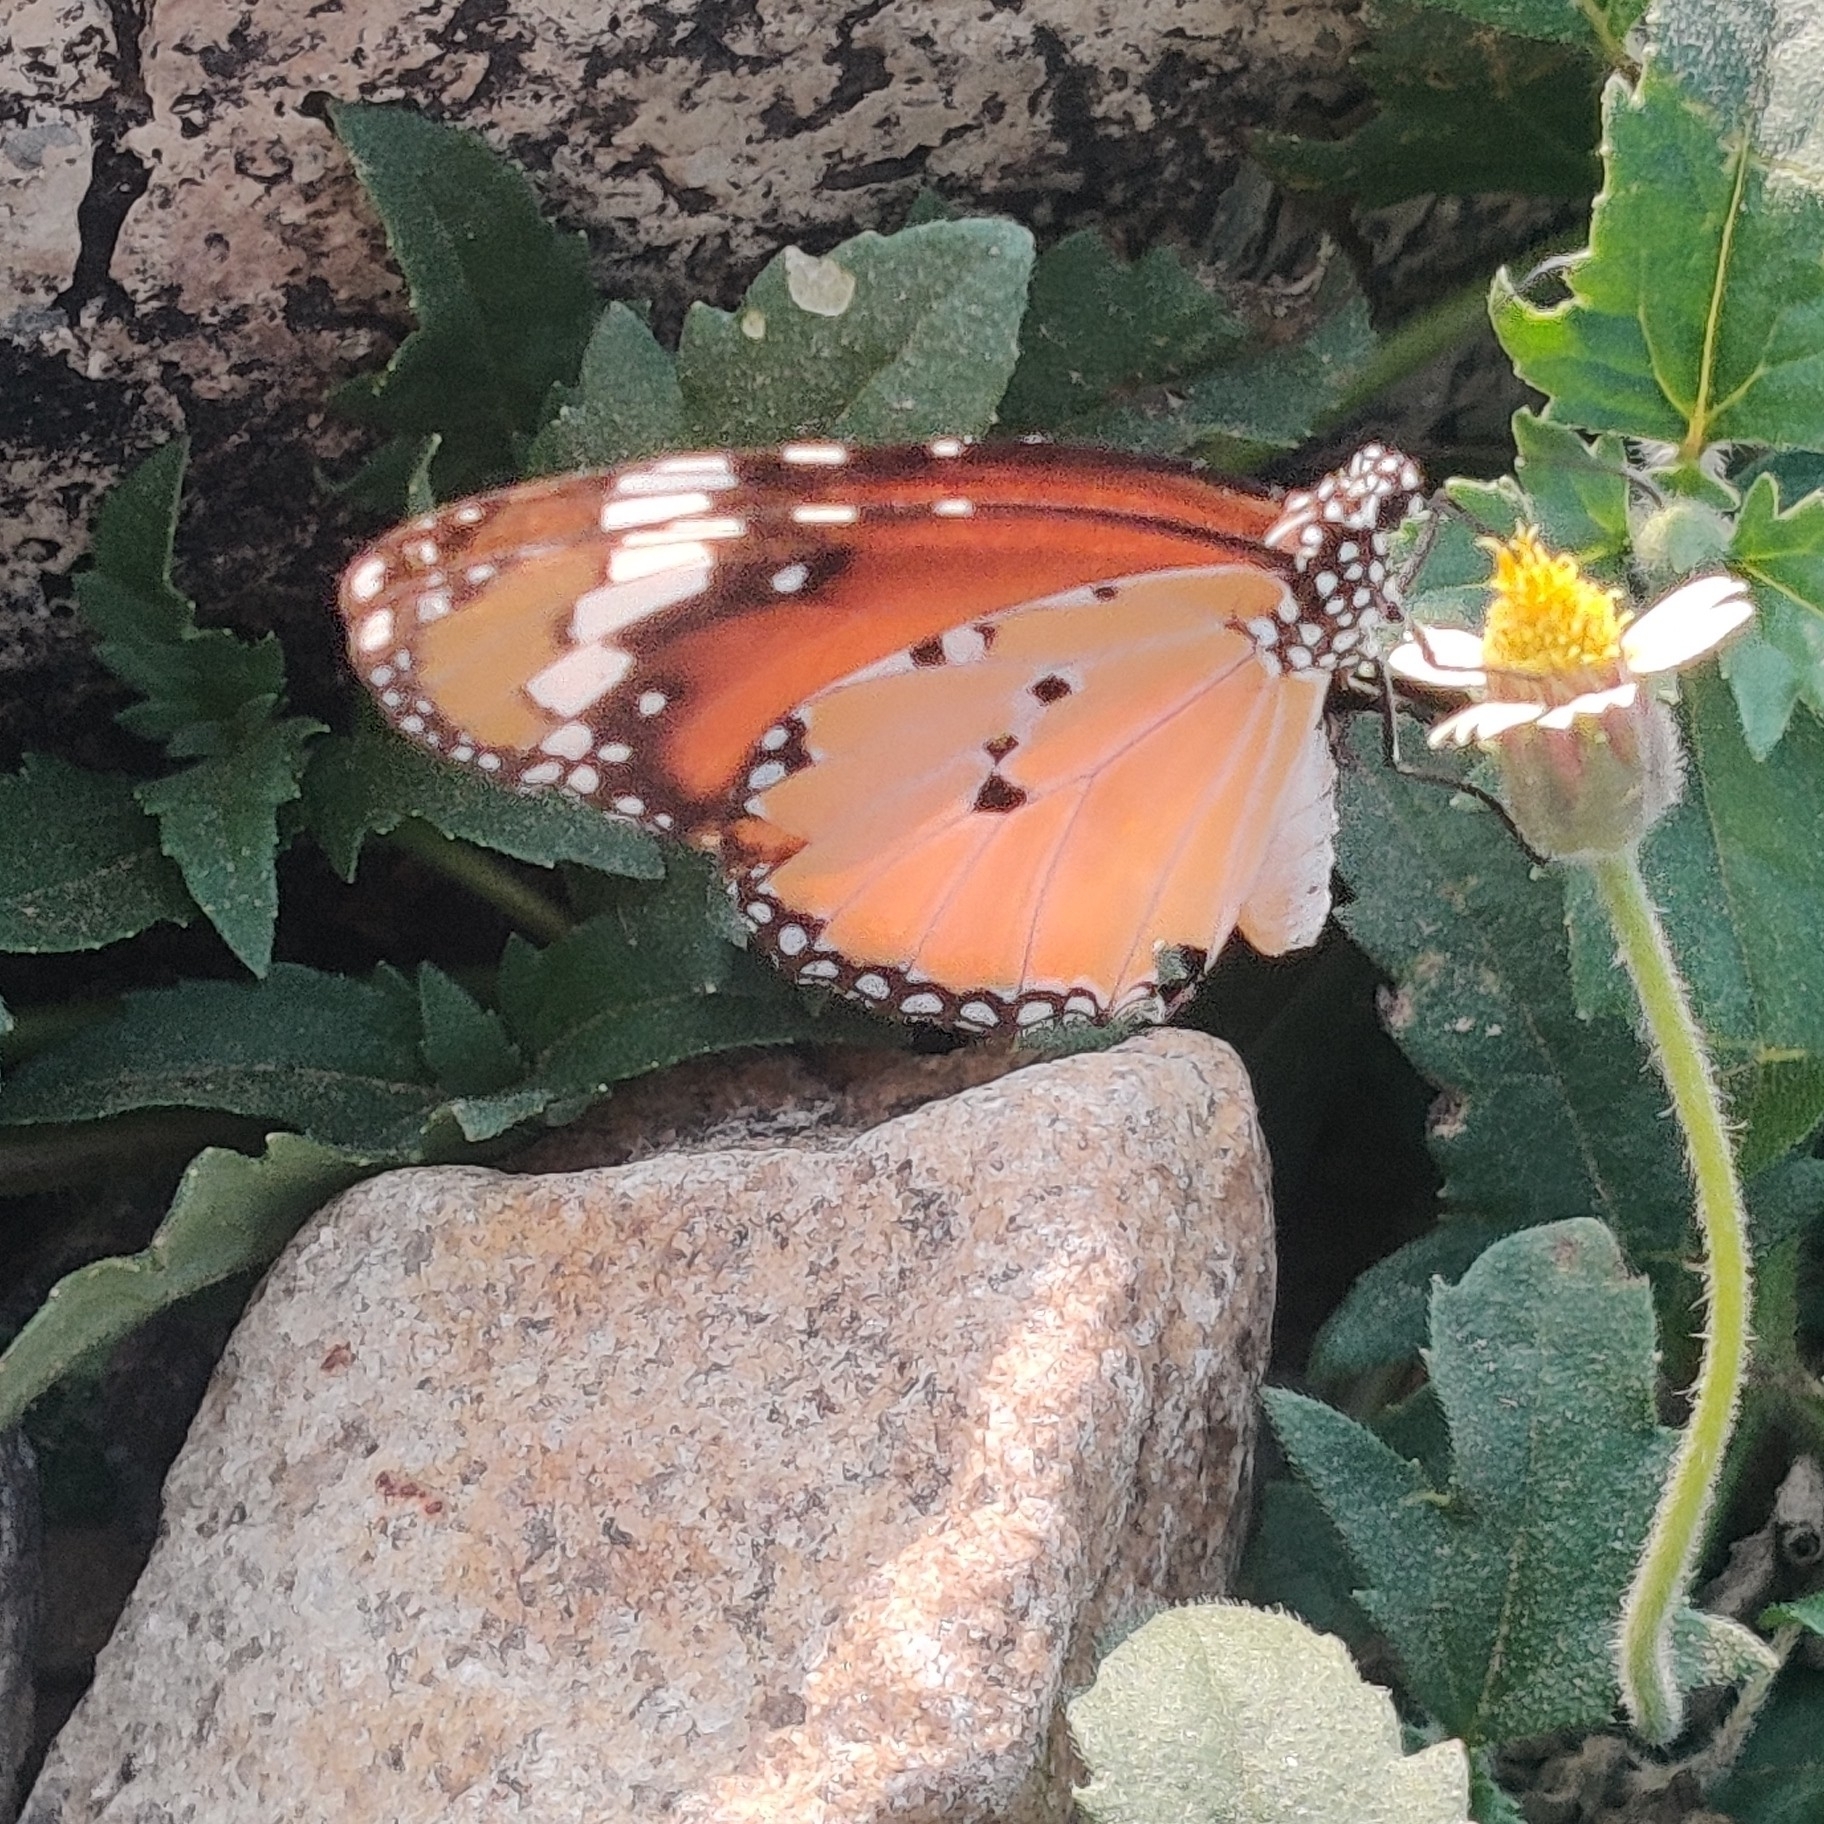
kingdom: Animalia
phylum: Arthropoda
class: Insecta
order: Lepidoptera
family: Nymphalidae
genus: Danaus
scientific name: Danaus chrysippus
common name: Plain tiger
